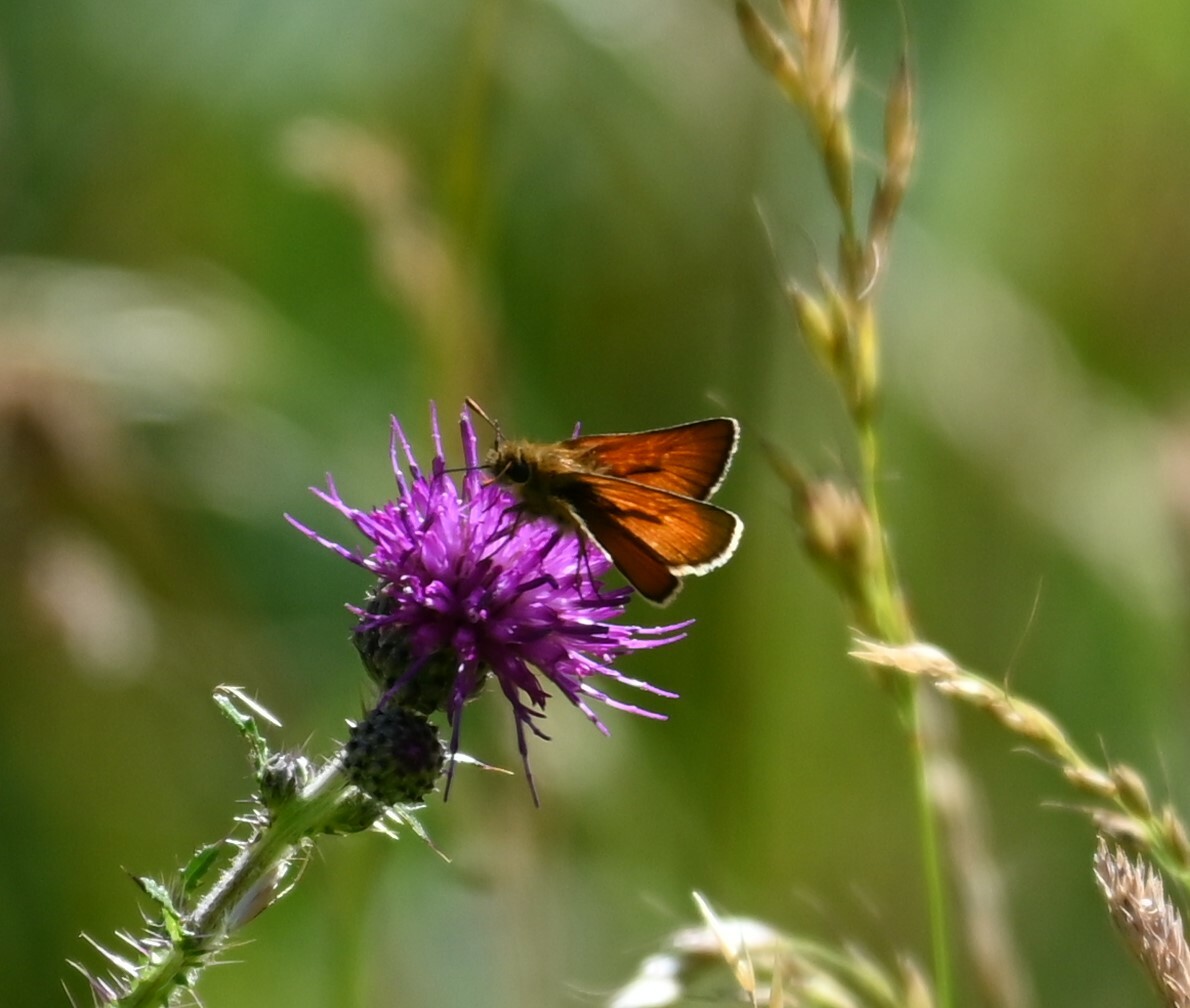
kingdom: Animalia
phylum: Arthropoda
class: Insecta
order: Lepidoptera
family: Hesperiidae
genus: Thymelicus
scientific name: Thymelicus sylvestris
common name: Small skipper
